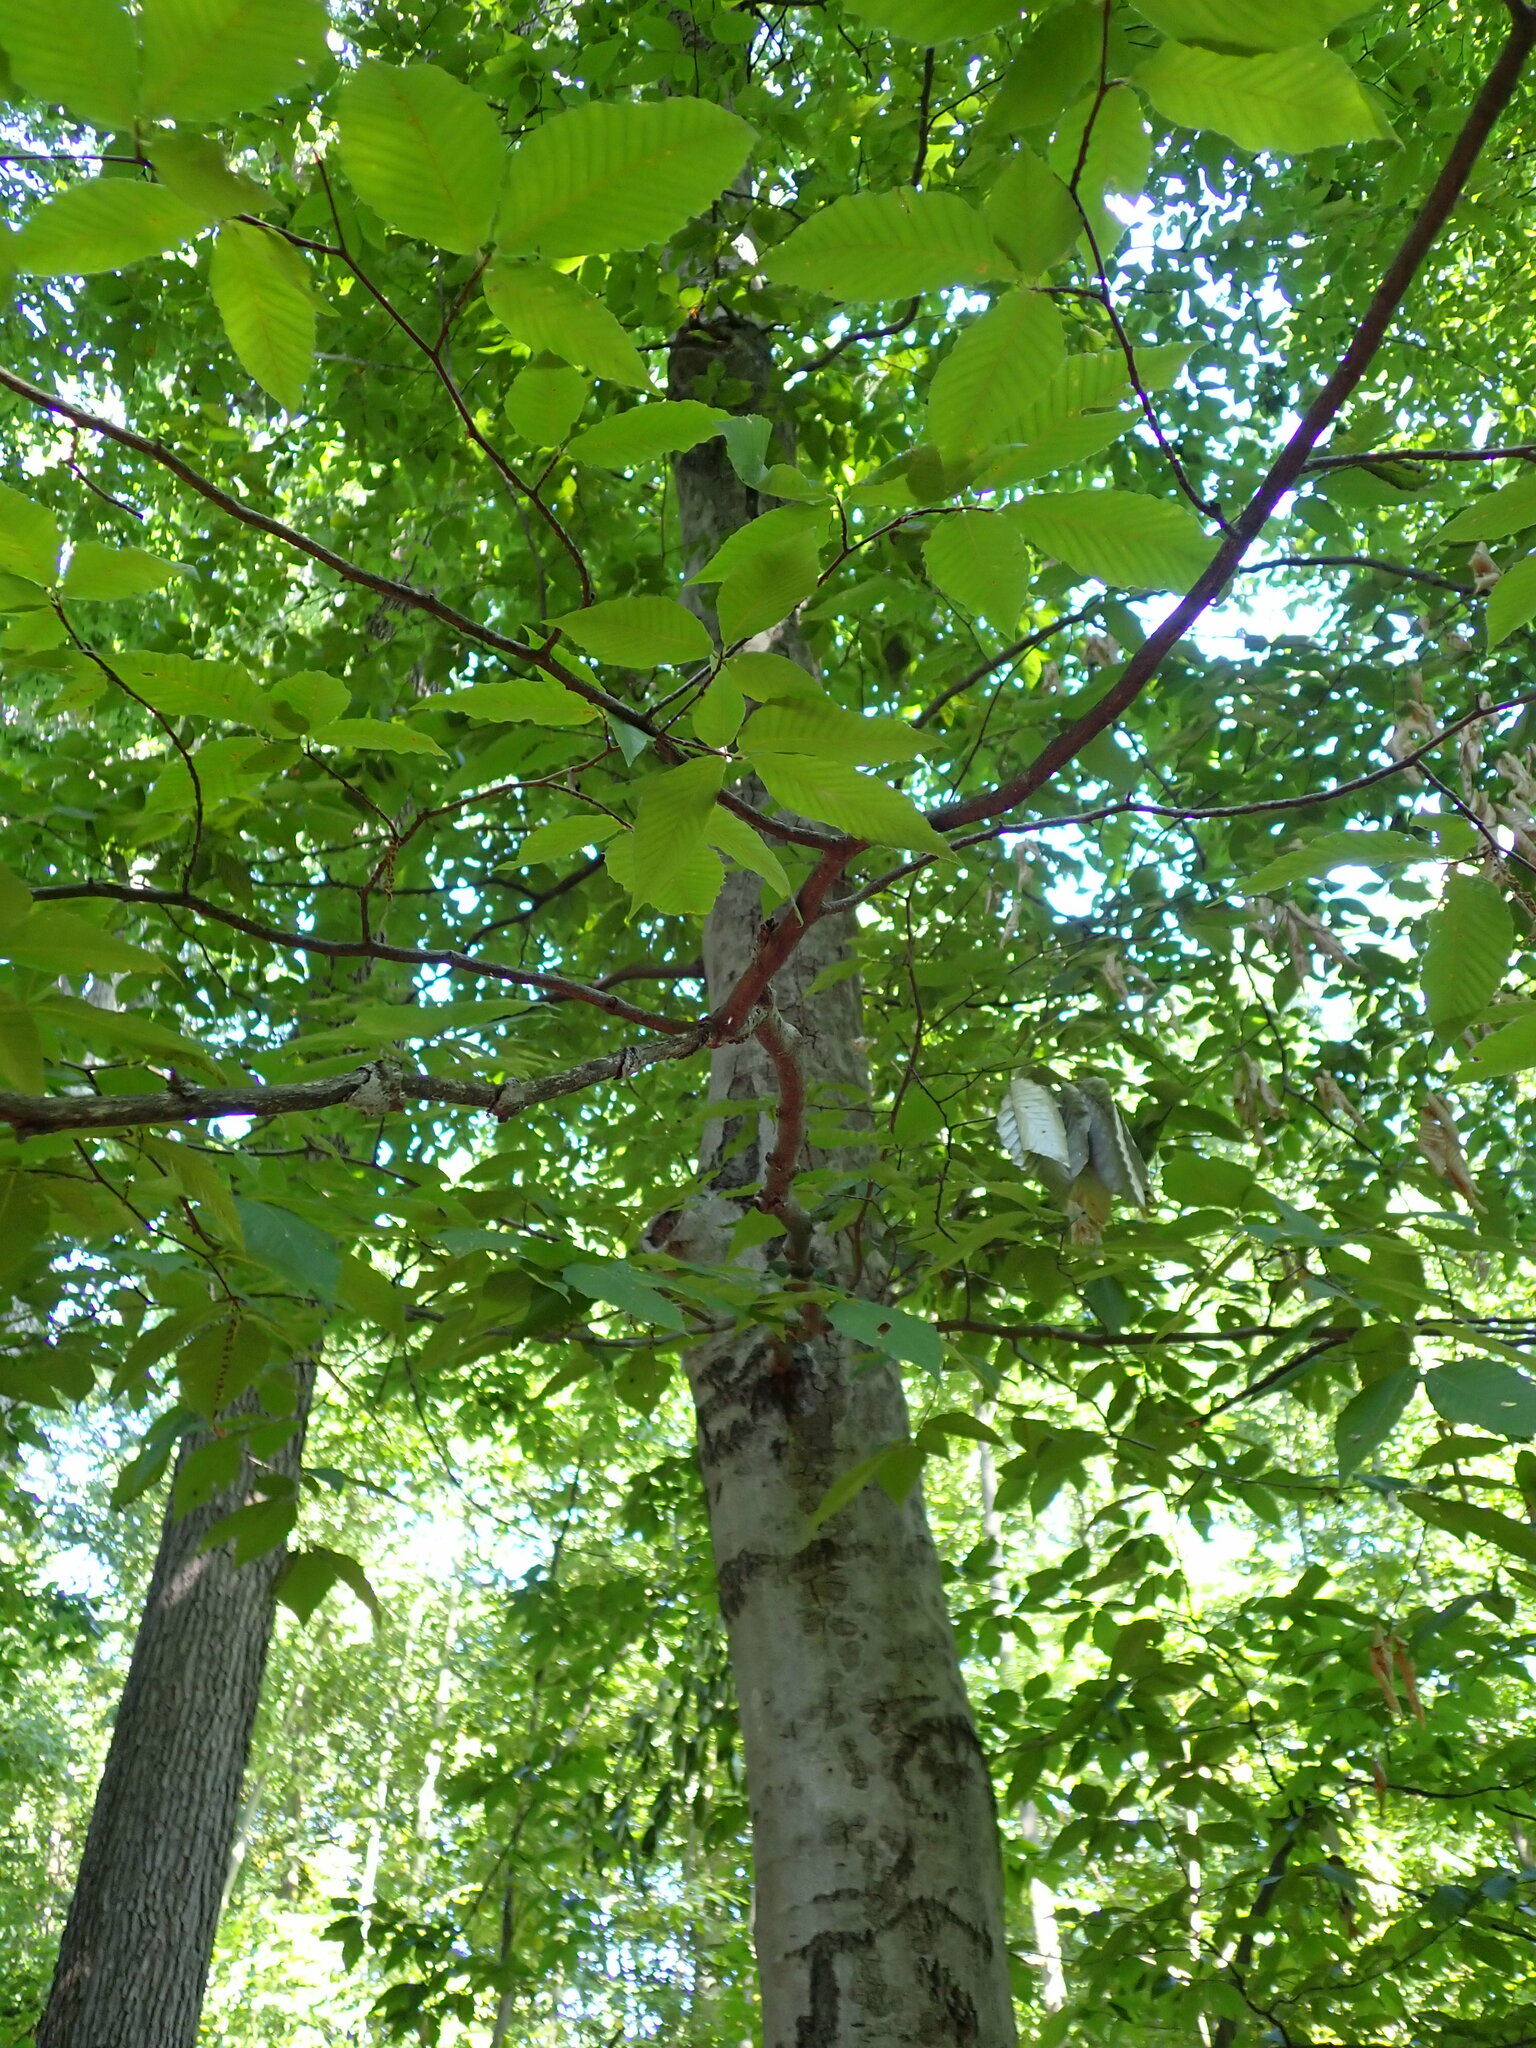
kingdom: Plantae
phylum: Tracheophyta
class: Magnoliopsida
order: Fagales
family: Fagaceae
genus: Fagus
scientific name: Fagus grandifolia
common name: American beech
